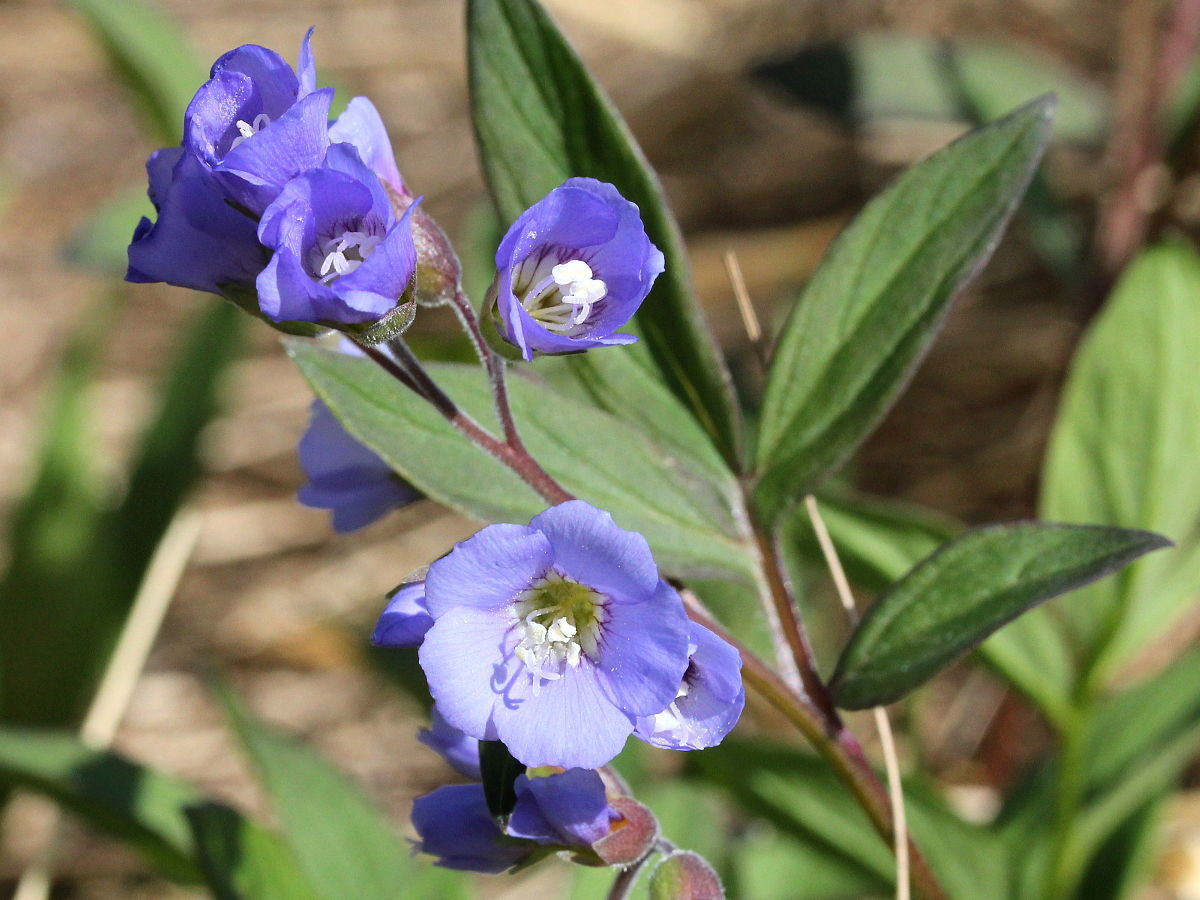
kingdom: Plantae
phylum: Tracheophyta
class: Magnoliopsida
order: Ericales
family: Polemoniaceae
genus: Polemonium
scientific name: Polemonium reptans
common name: Creeping jacob's-ladder
